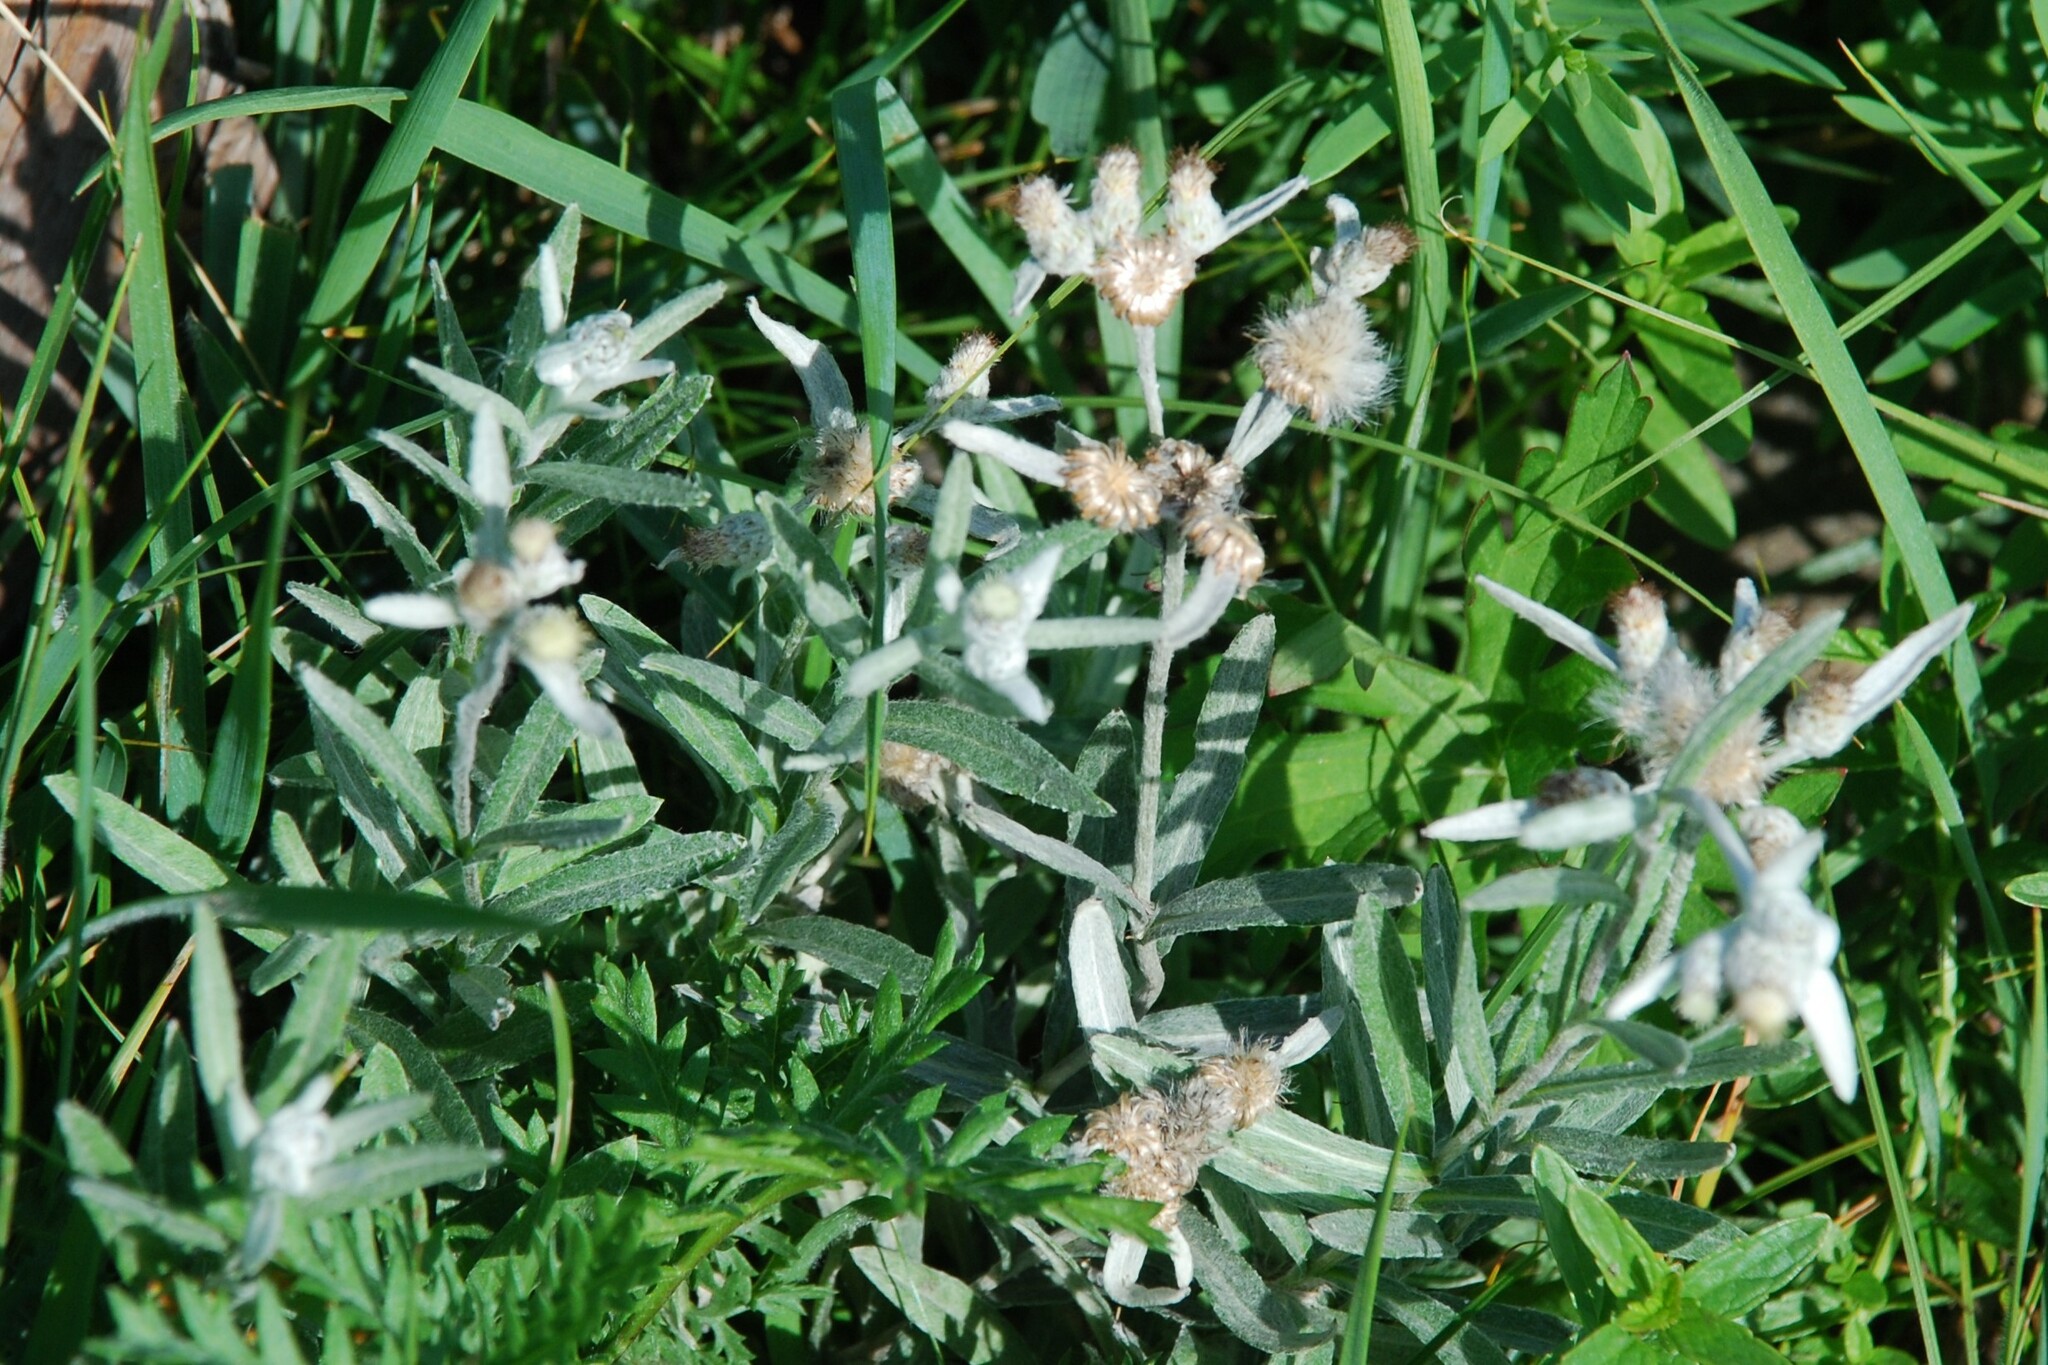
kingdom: Plantae
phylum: Tracheophyta
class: Magnoliopsida
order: Asterales
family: Asteraceae
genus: Leontopodium
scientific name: Leontopodium leontopodioides
